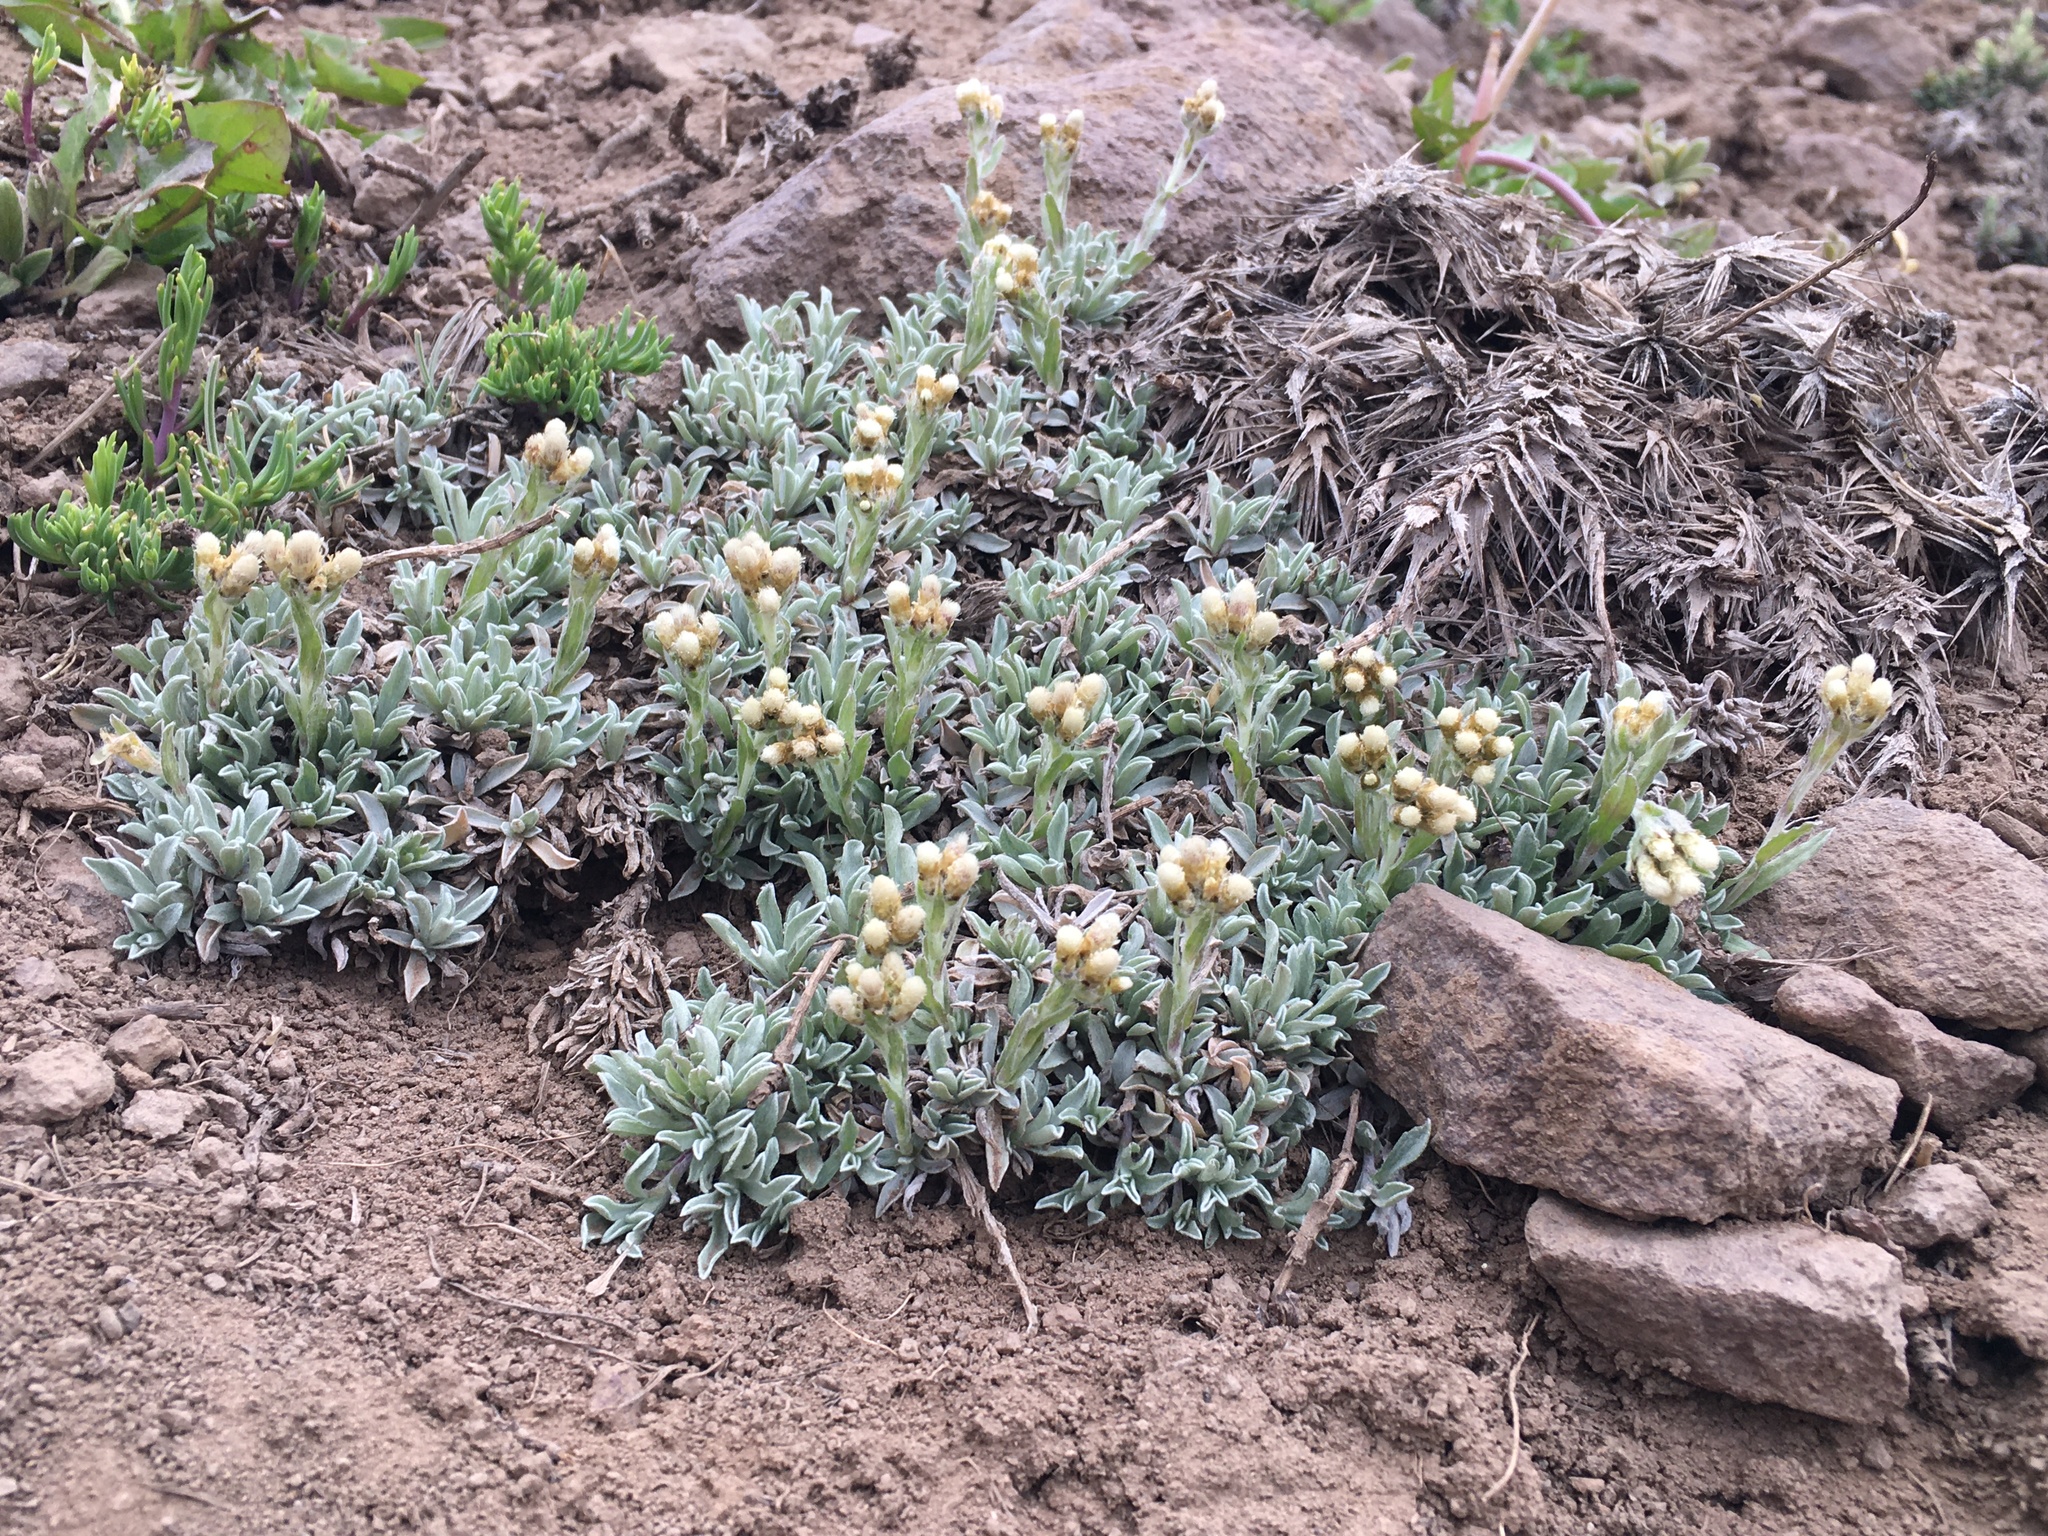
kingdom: Plantae
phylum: Tracheophyta
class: Magnoliopsida
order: Asterales
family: Asteraceae
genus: Antennaria
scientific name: Antennaria chilensis
